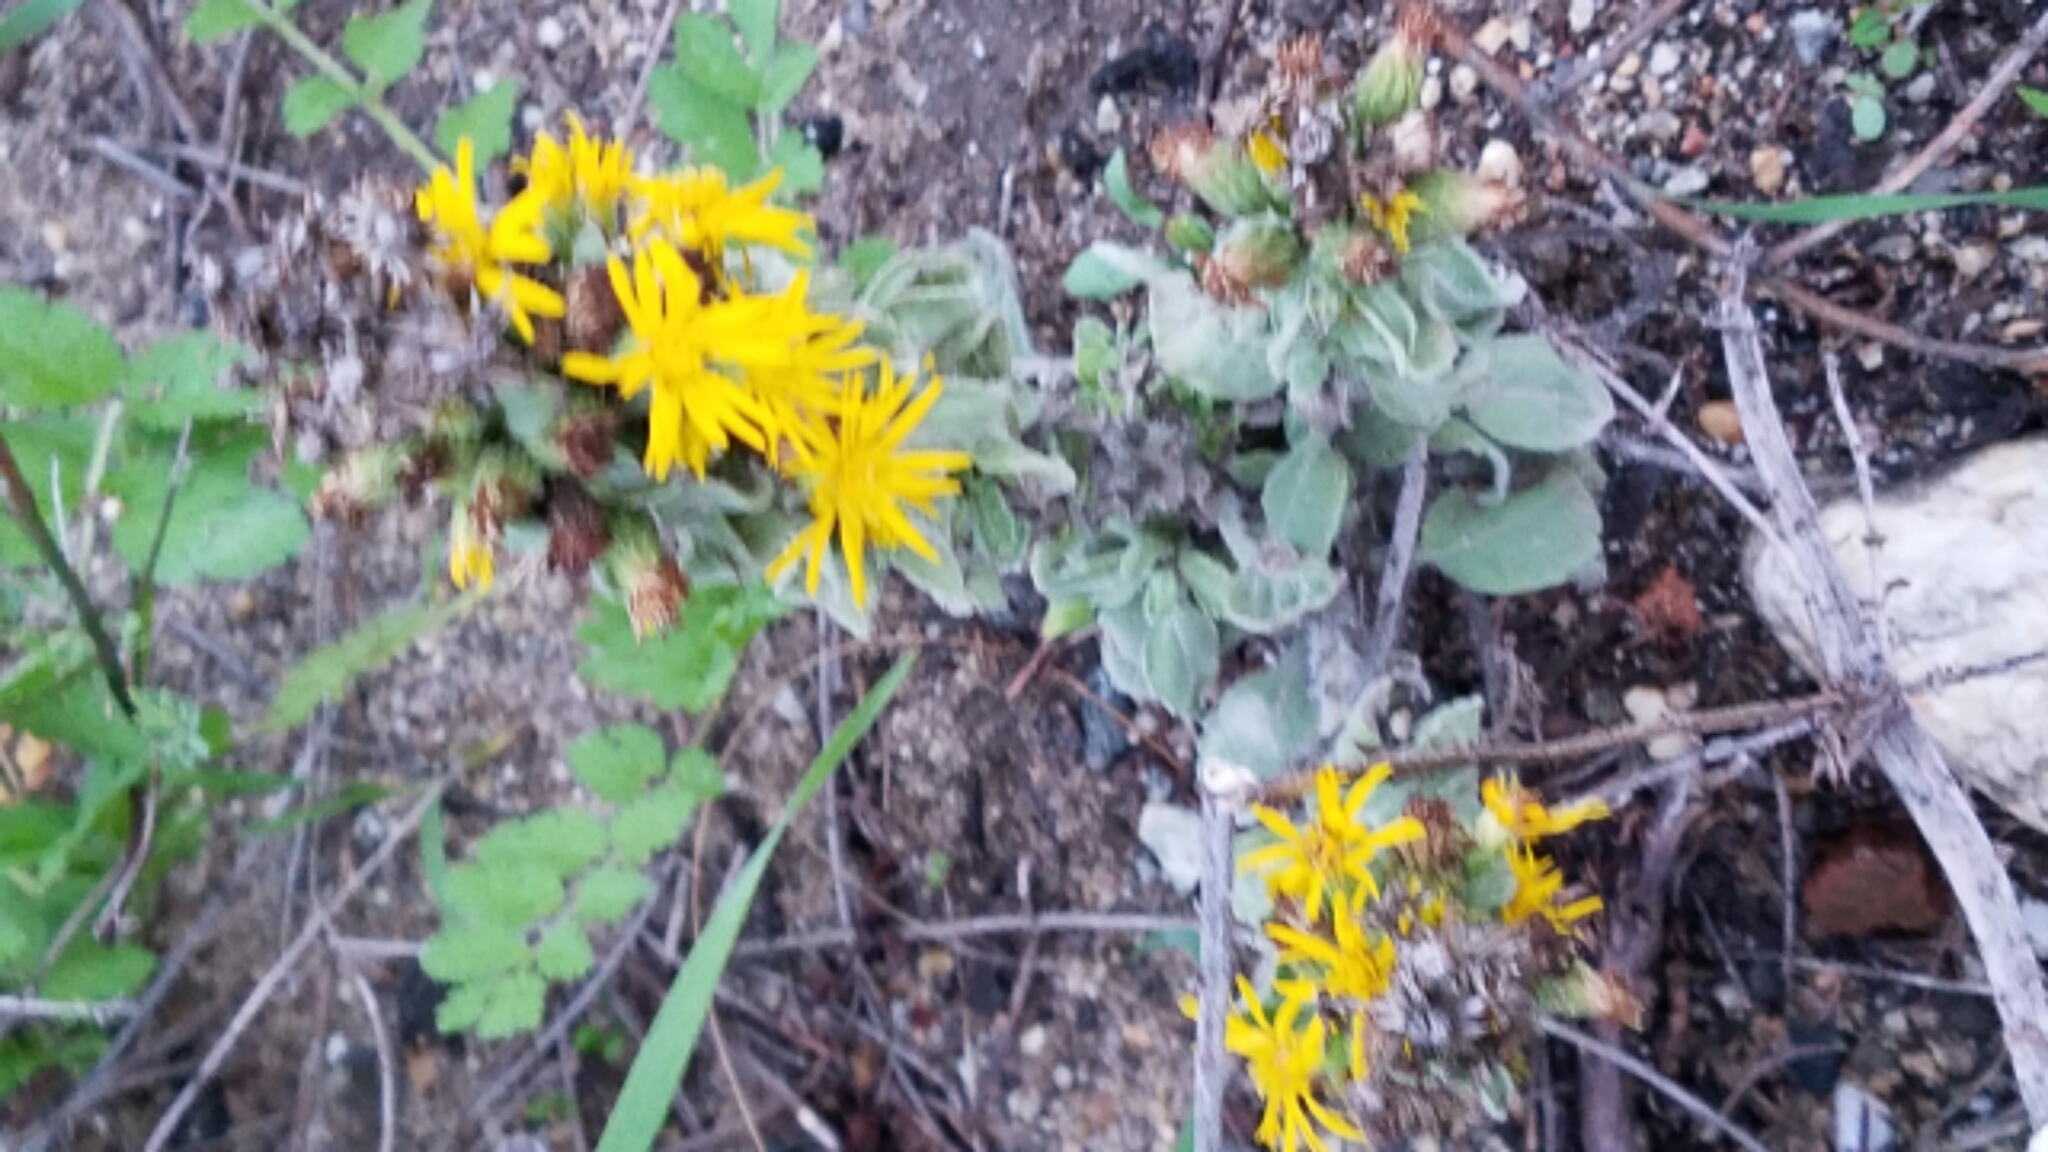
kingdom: Plantae
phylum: Tracheophyta
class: Magnoliopsida
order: Asterales
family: Asteraceae
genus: Heterotheca
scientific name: Heterotheca grandiflora
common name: Telegraphweed
